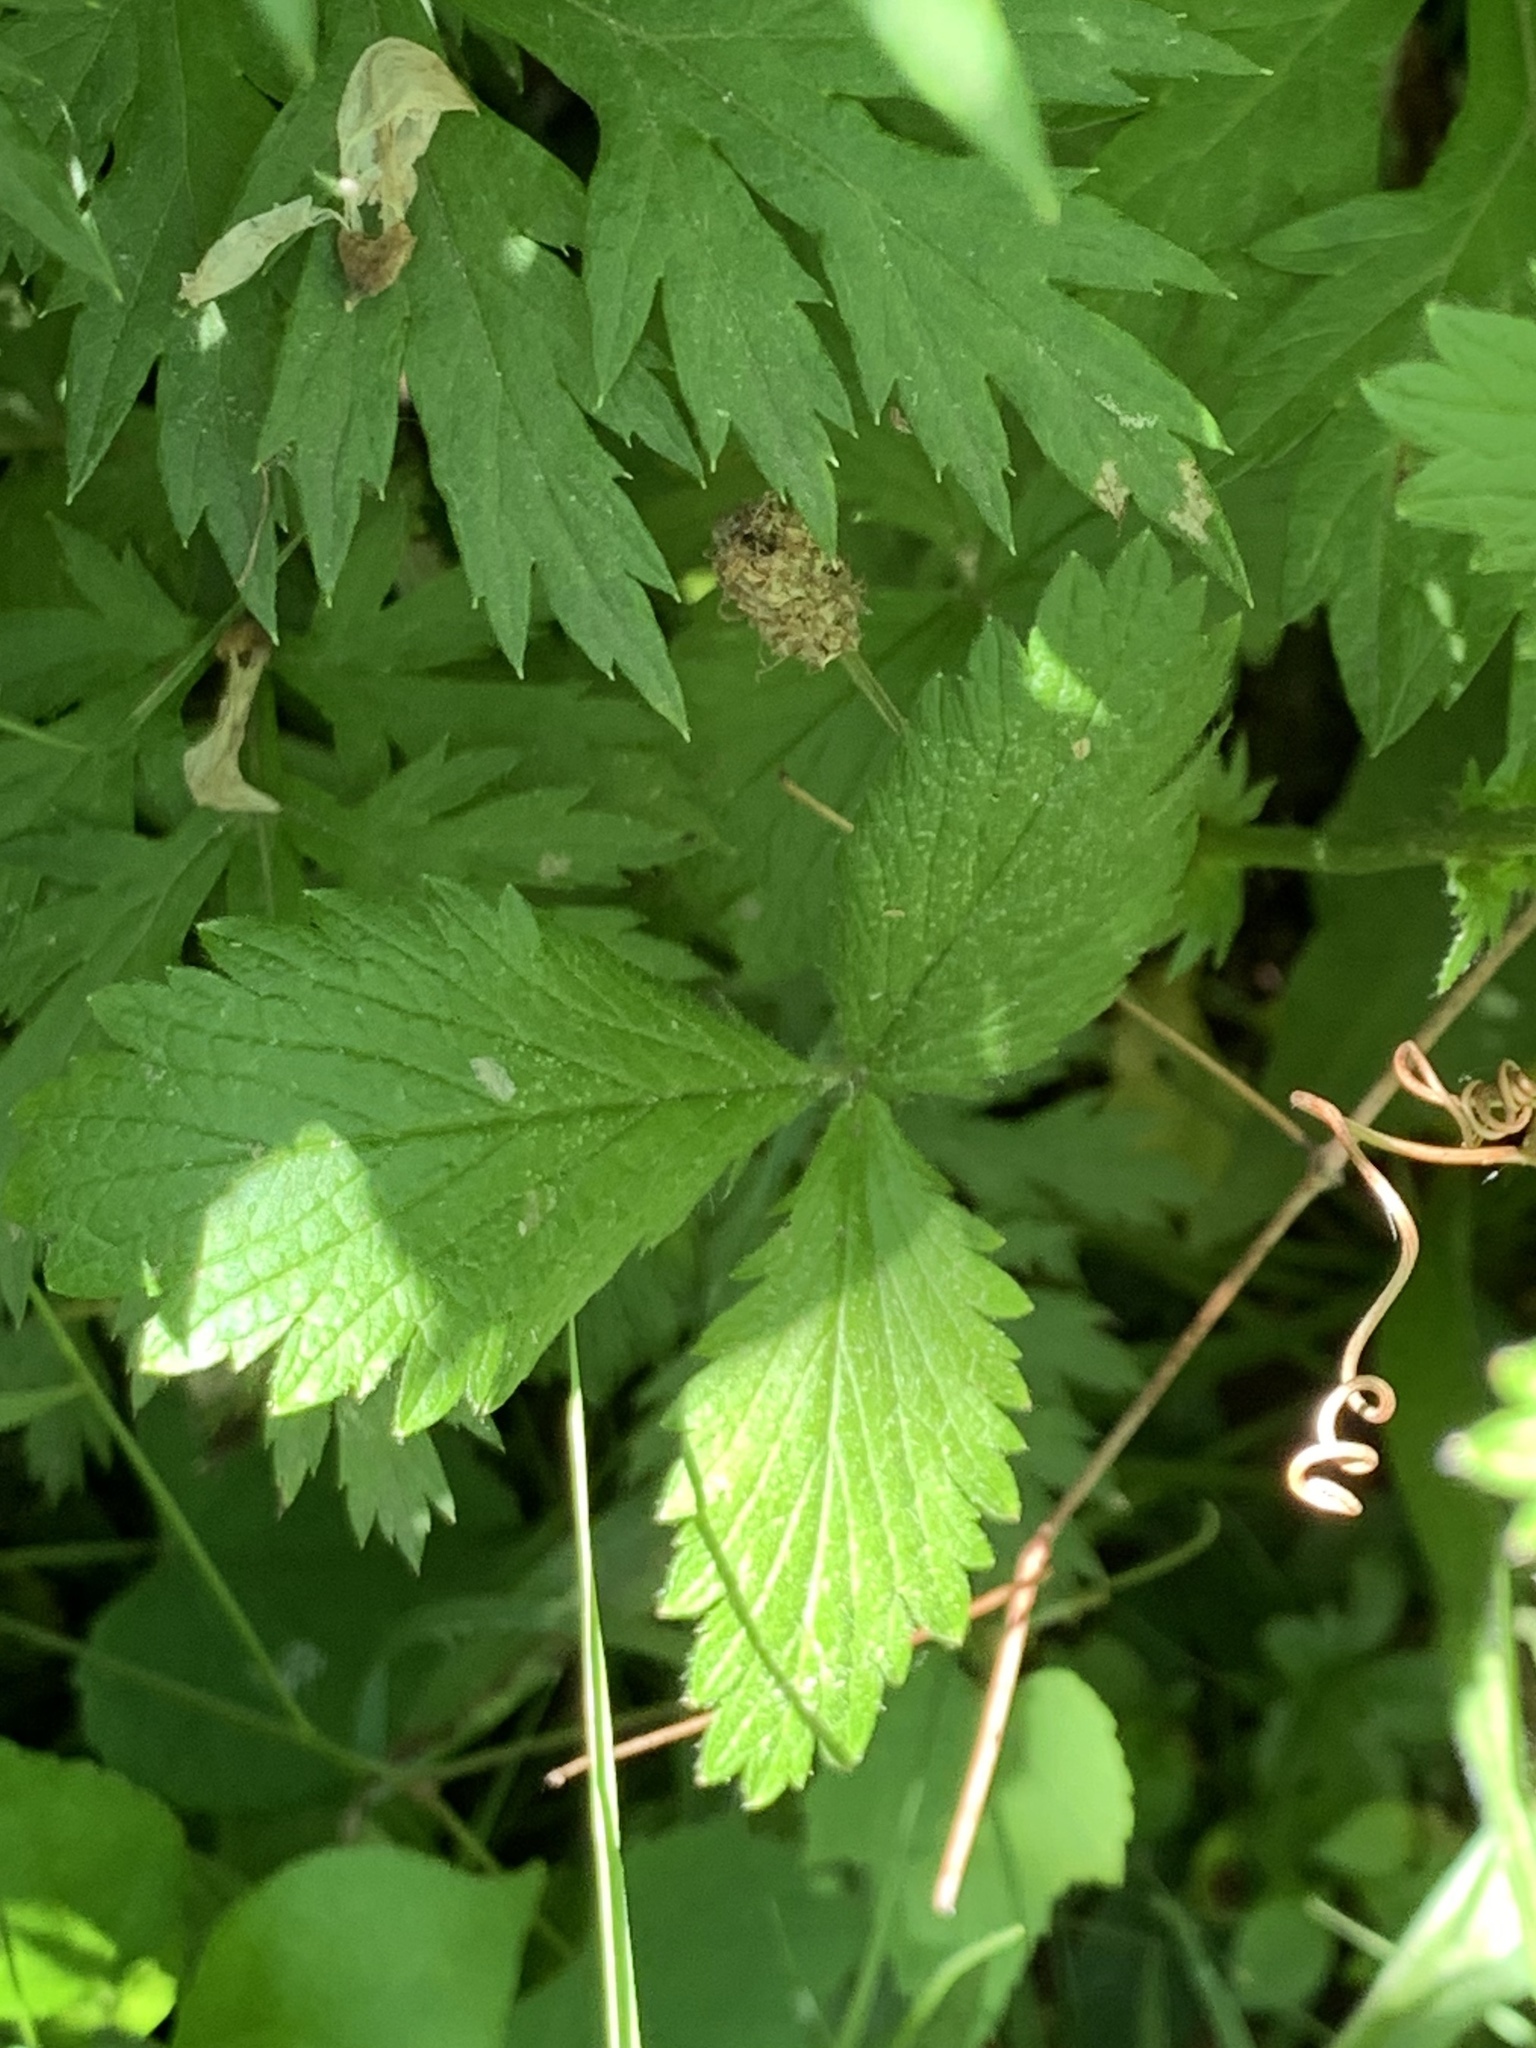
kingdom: Plantae
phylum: Tracheophyta
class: Magnoliopsida
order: Rosales
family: Rosaceae
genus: Potentilla
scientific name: Potentilla norvegica
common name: Ternate-leaved cinquefoil
